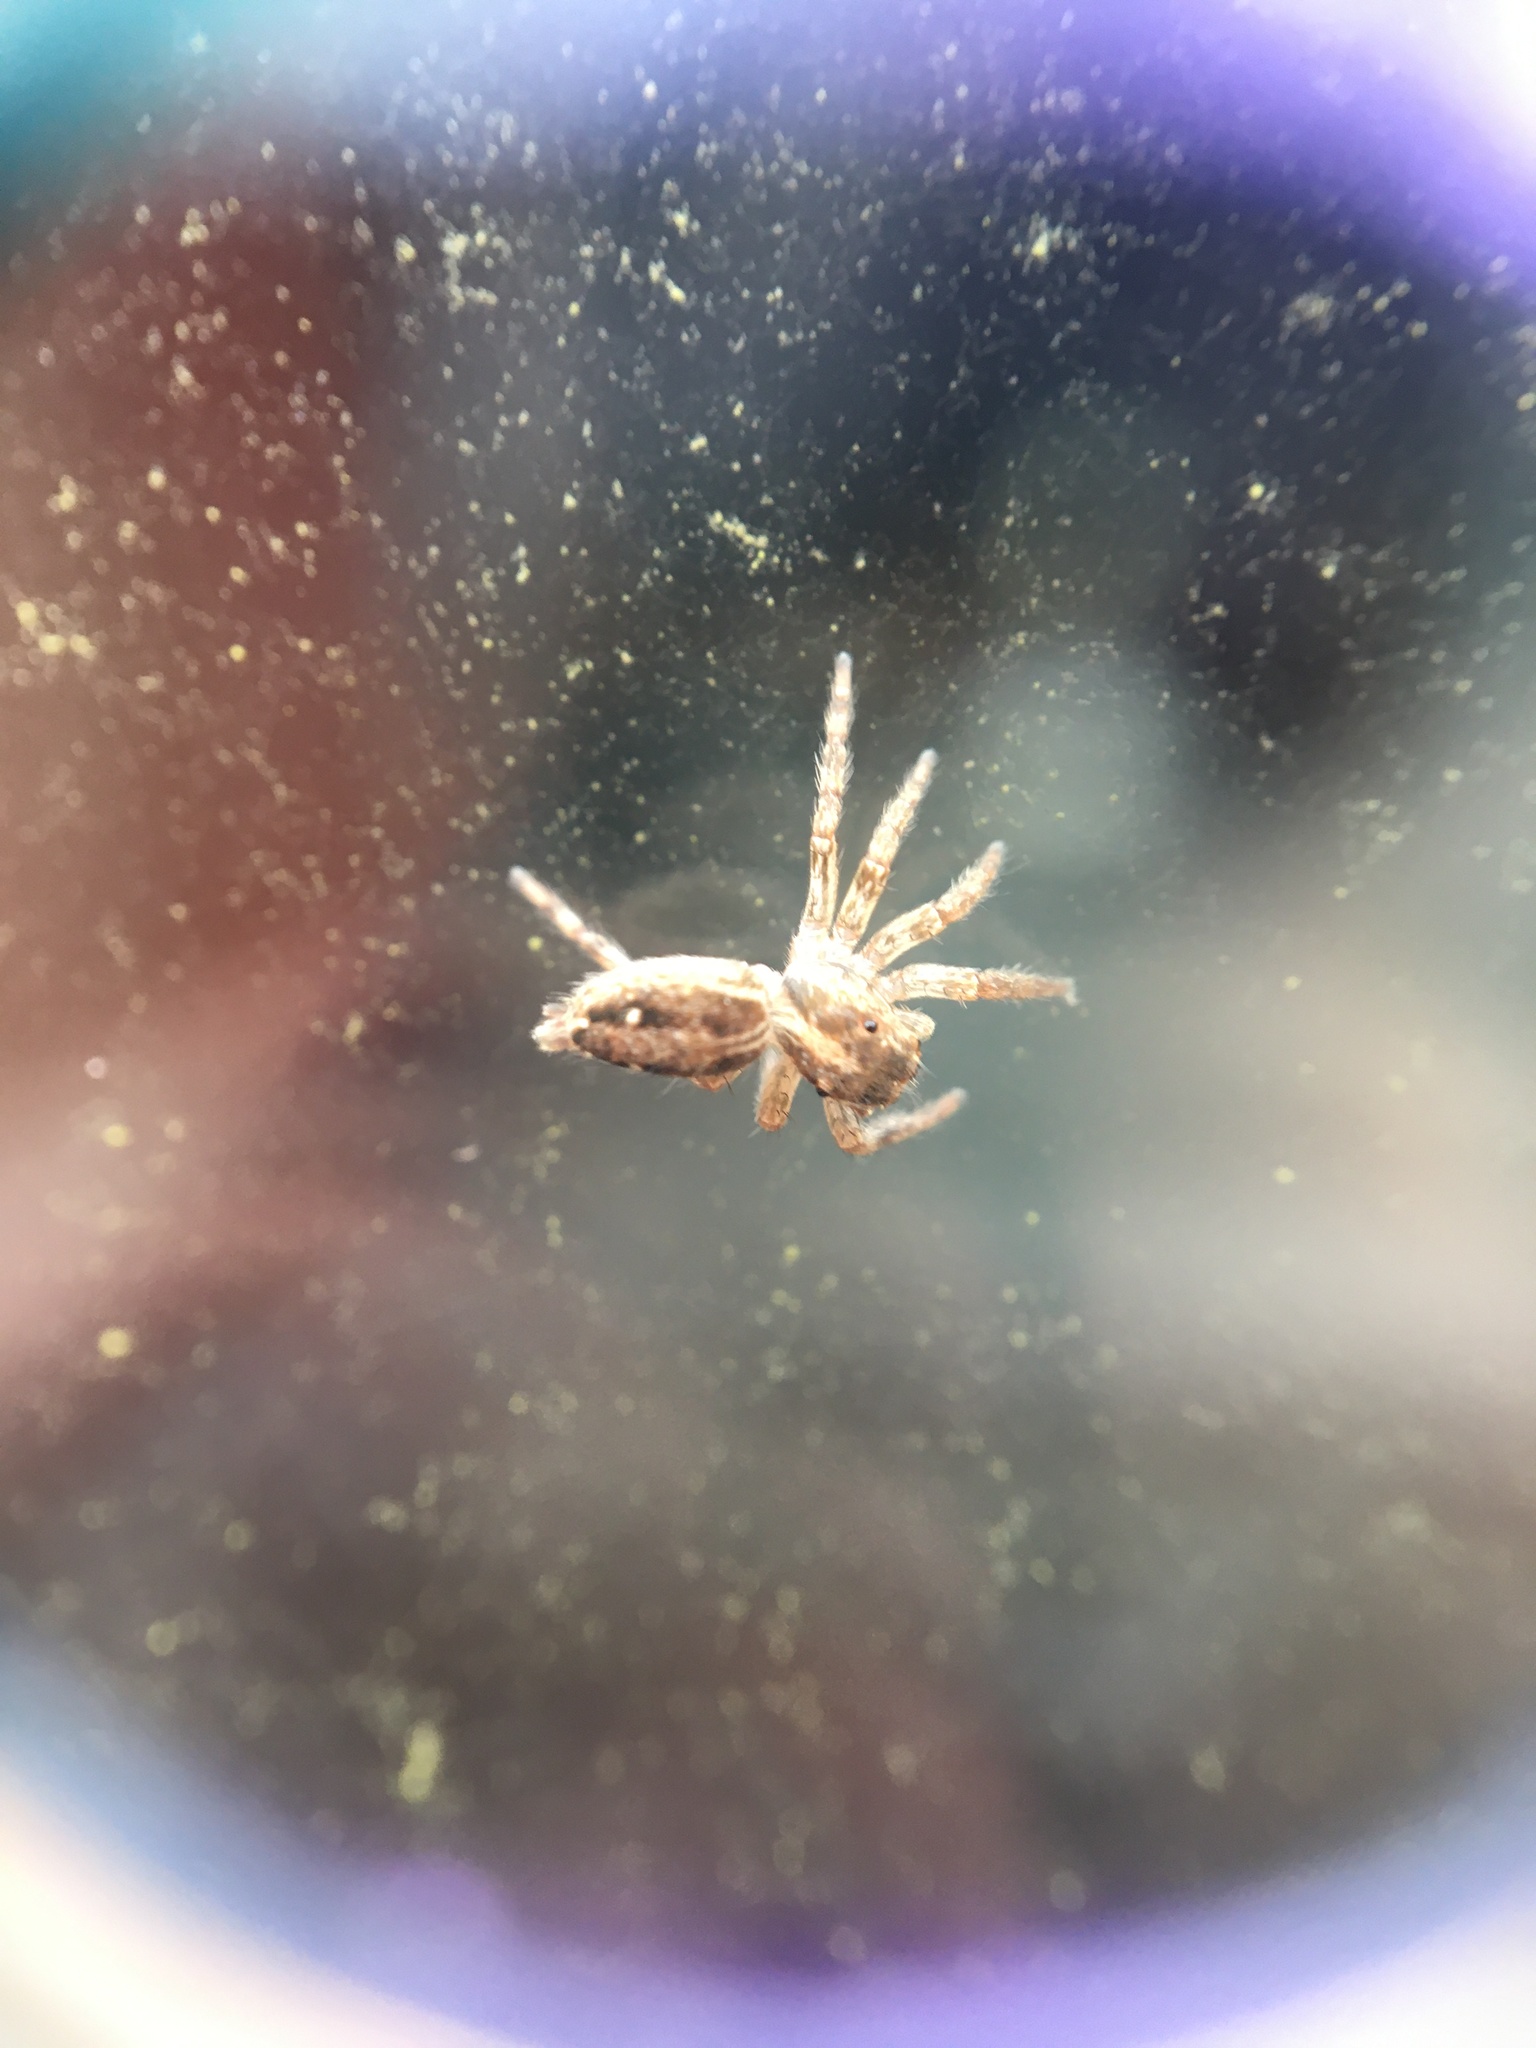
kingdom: Animalia
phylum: Arthropoda
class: Arachnida
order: Araneae
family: Salticidae
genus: Plexippus
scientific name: Plexippus paykulli
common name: Pantropical jumper
